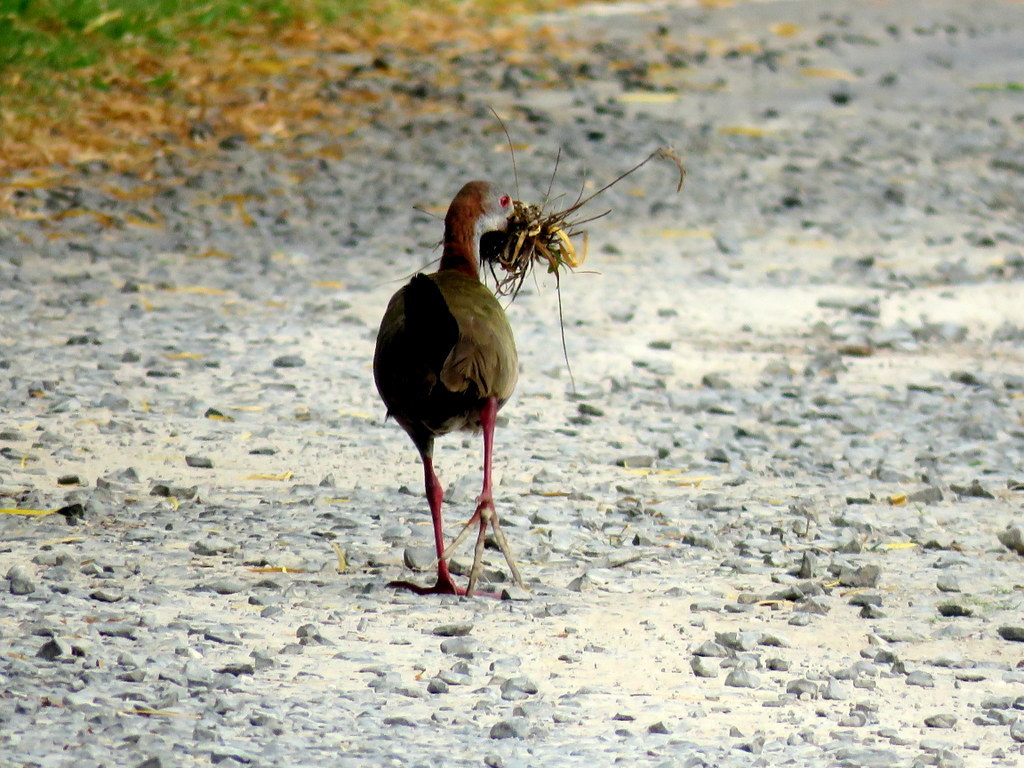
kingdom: Animalia
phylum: Chordata
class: Aves
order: Gruiformes
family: Rallidae
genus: Aramides
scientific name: Aramides ypecaha
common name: Giant wood rail
